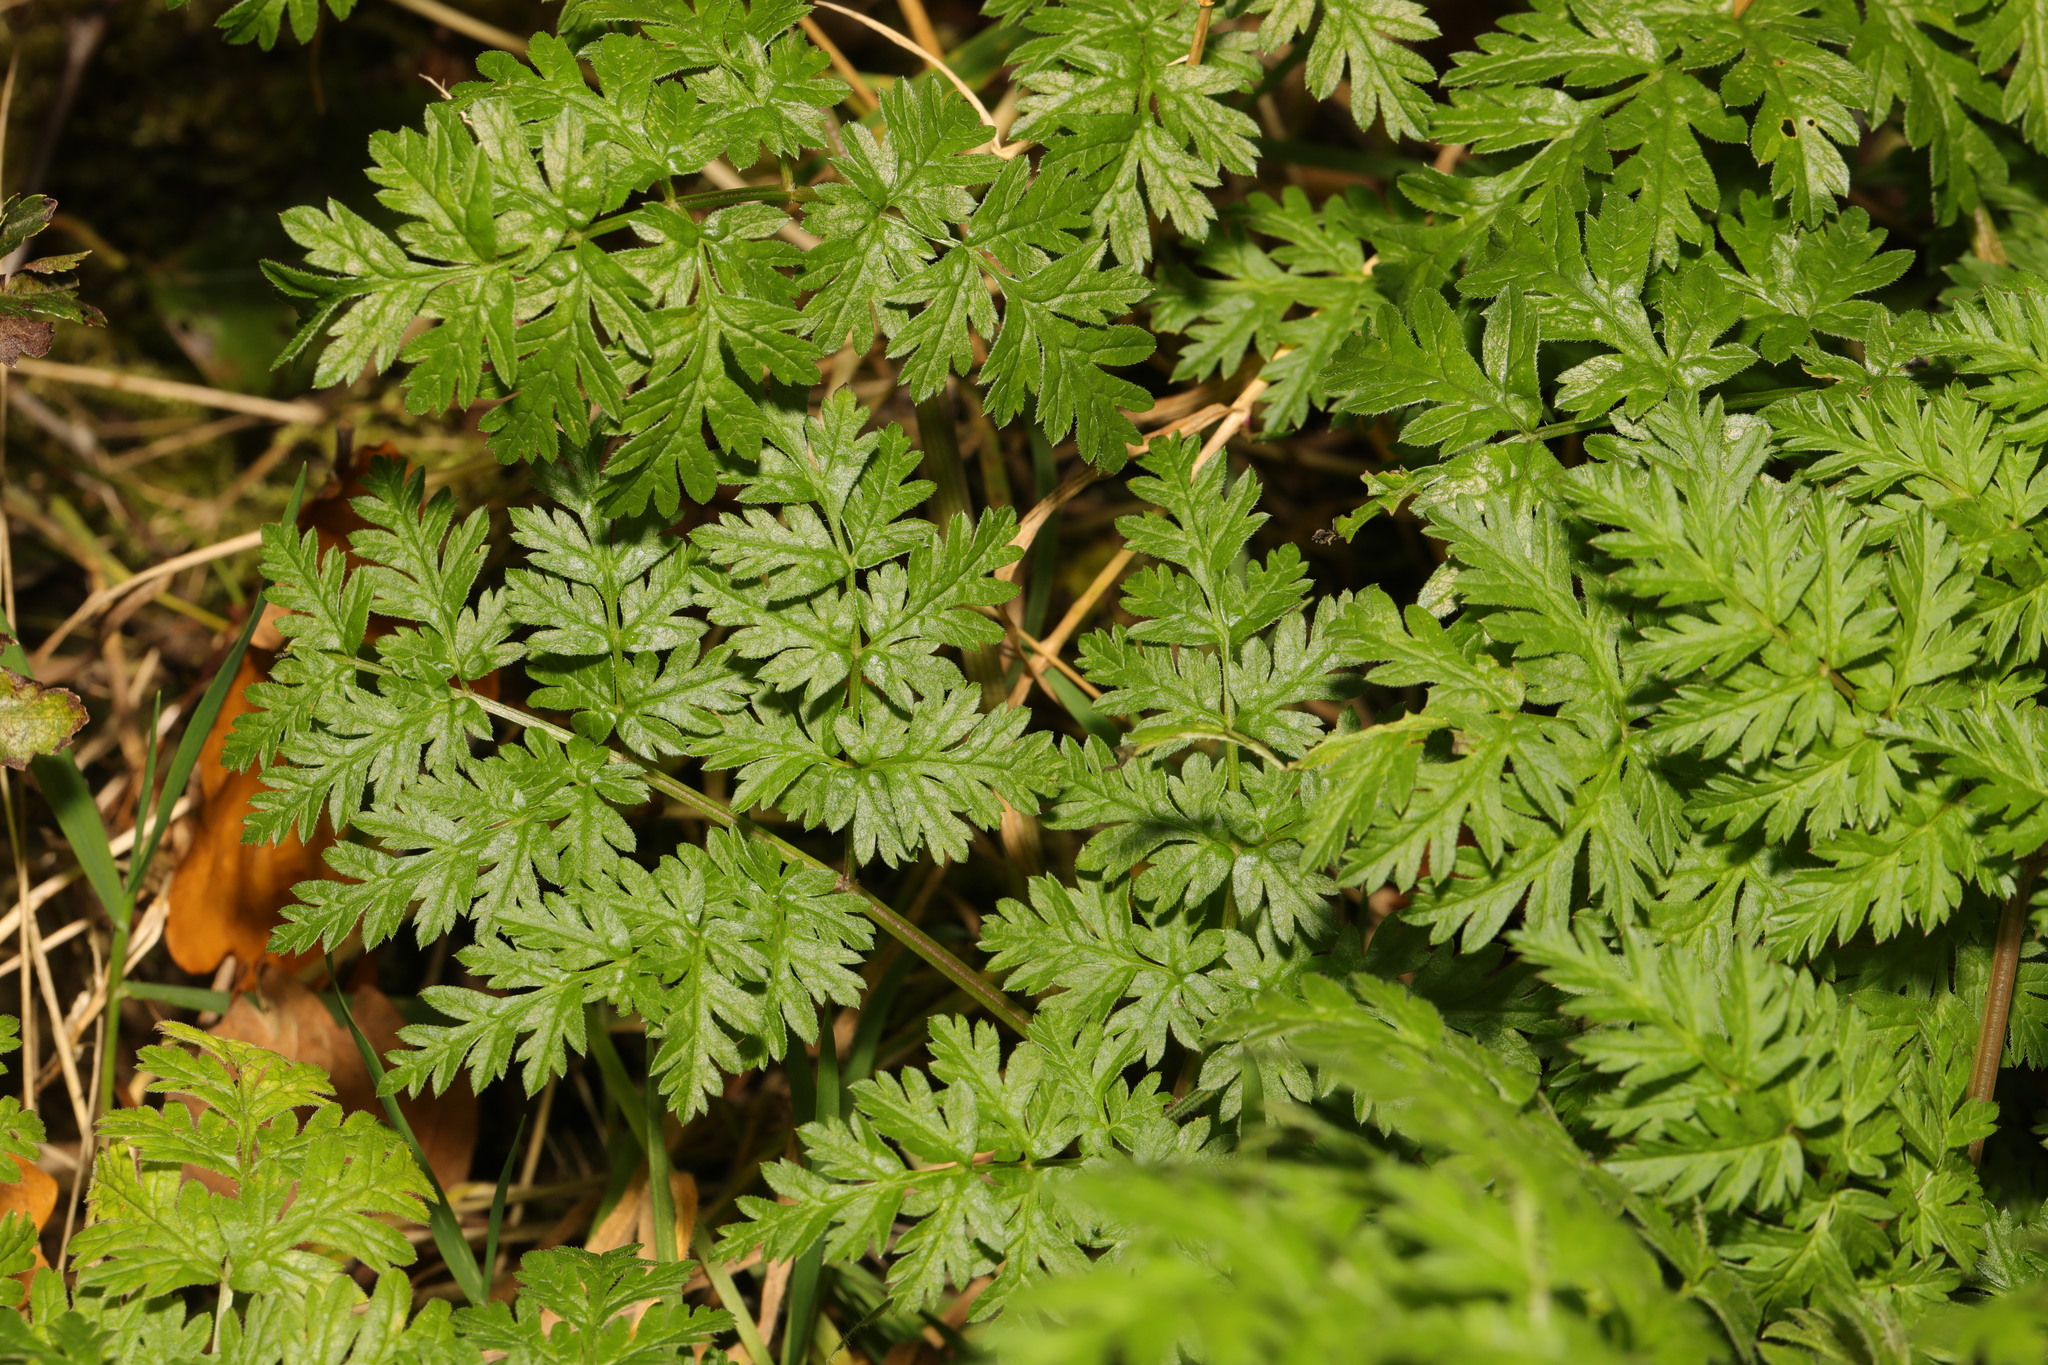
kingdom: Plantae
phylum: Tracheophyta
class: Magnoliopsida
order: Apiales
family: Apiaceae
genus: Anthriscus
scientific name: Anthriscus sylvestris
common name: Cow parsley
